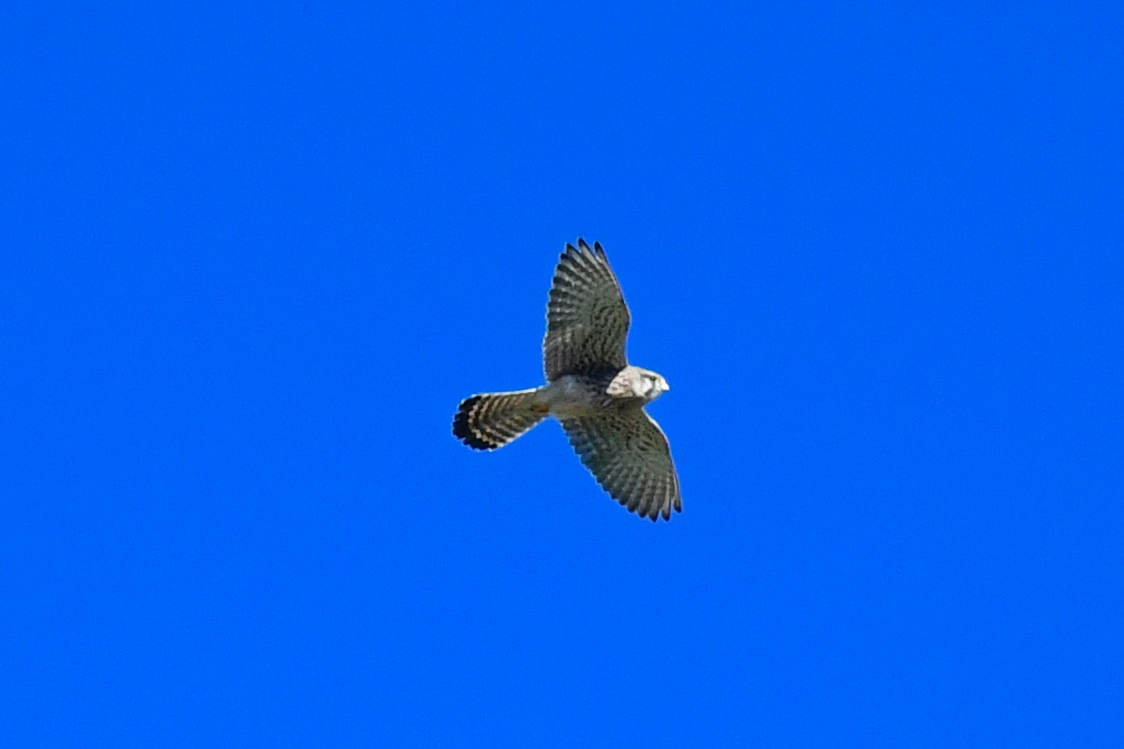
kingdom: Animalia
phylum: Chordata
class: Aves
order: Falconiformes
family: Falconidae
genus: Falco
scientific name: Falco tinnunculus
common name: Common kestrel
